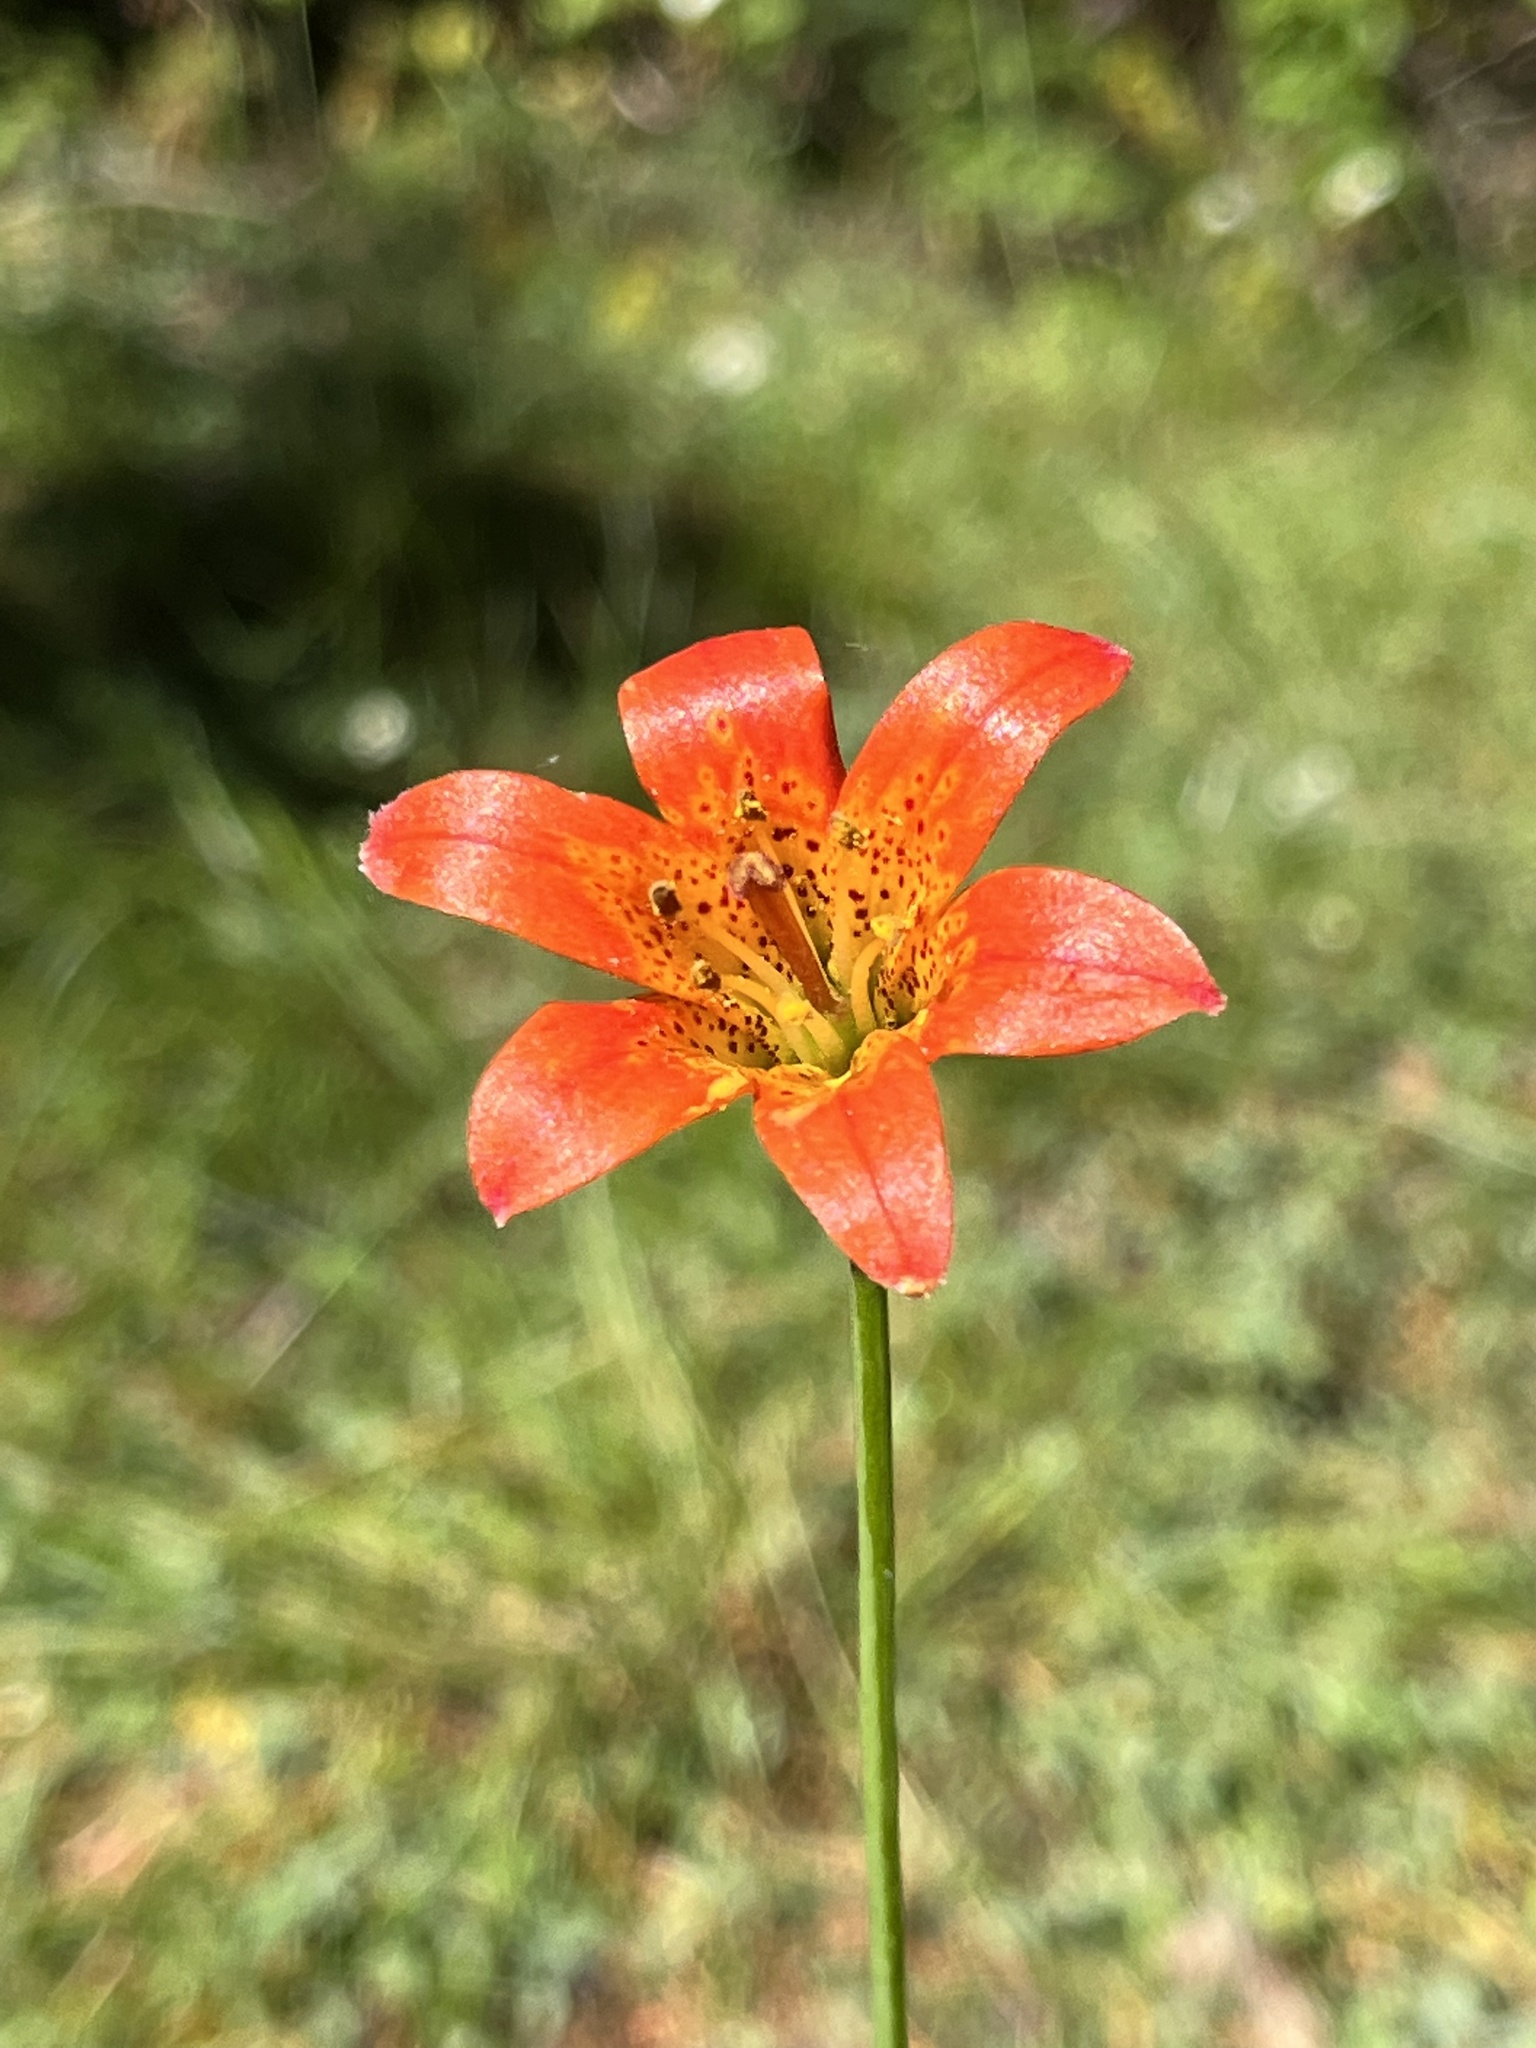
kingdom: Plantae
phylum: Tracheophyta
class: Liliopsida
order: Liliales
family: Liliaceae
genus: Lilium
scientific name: Lilium parvum
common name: Alpine lily
